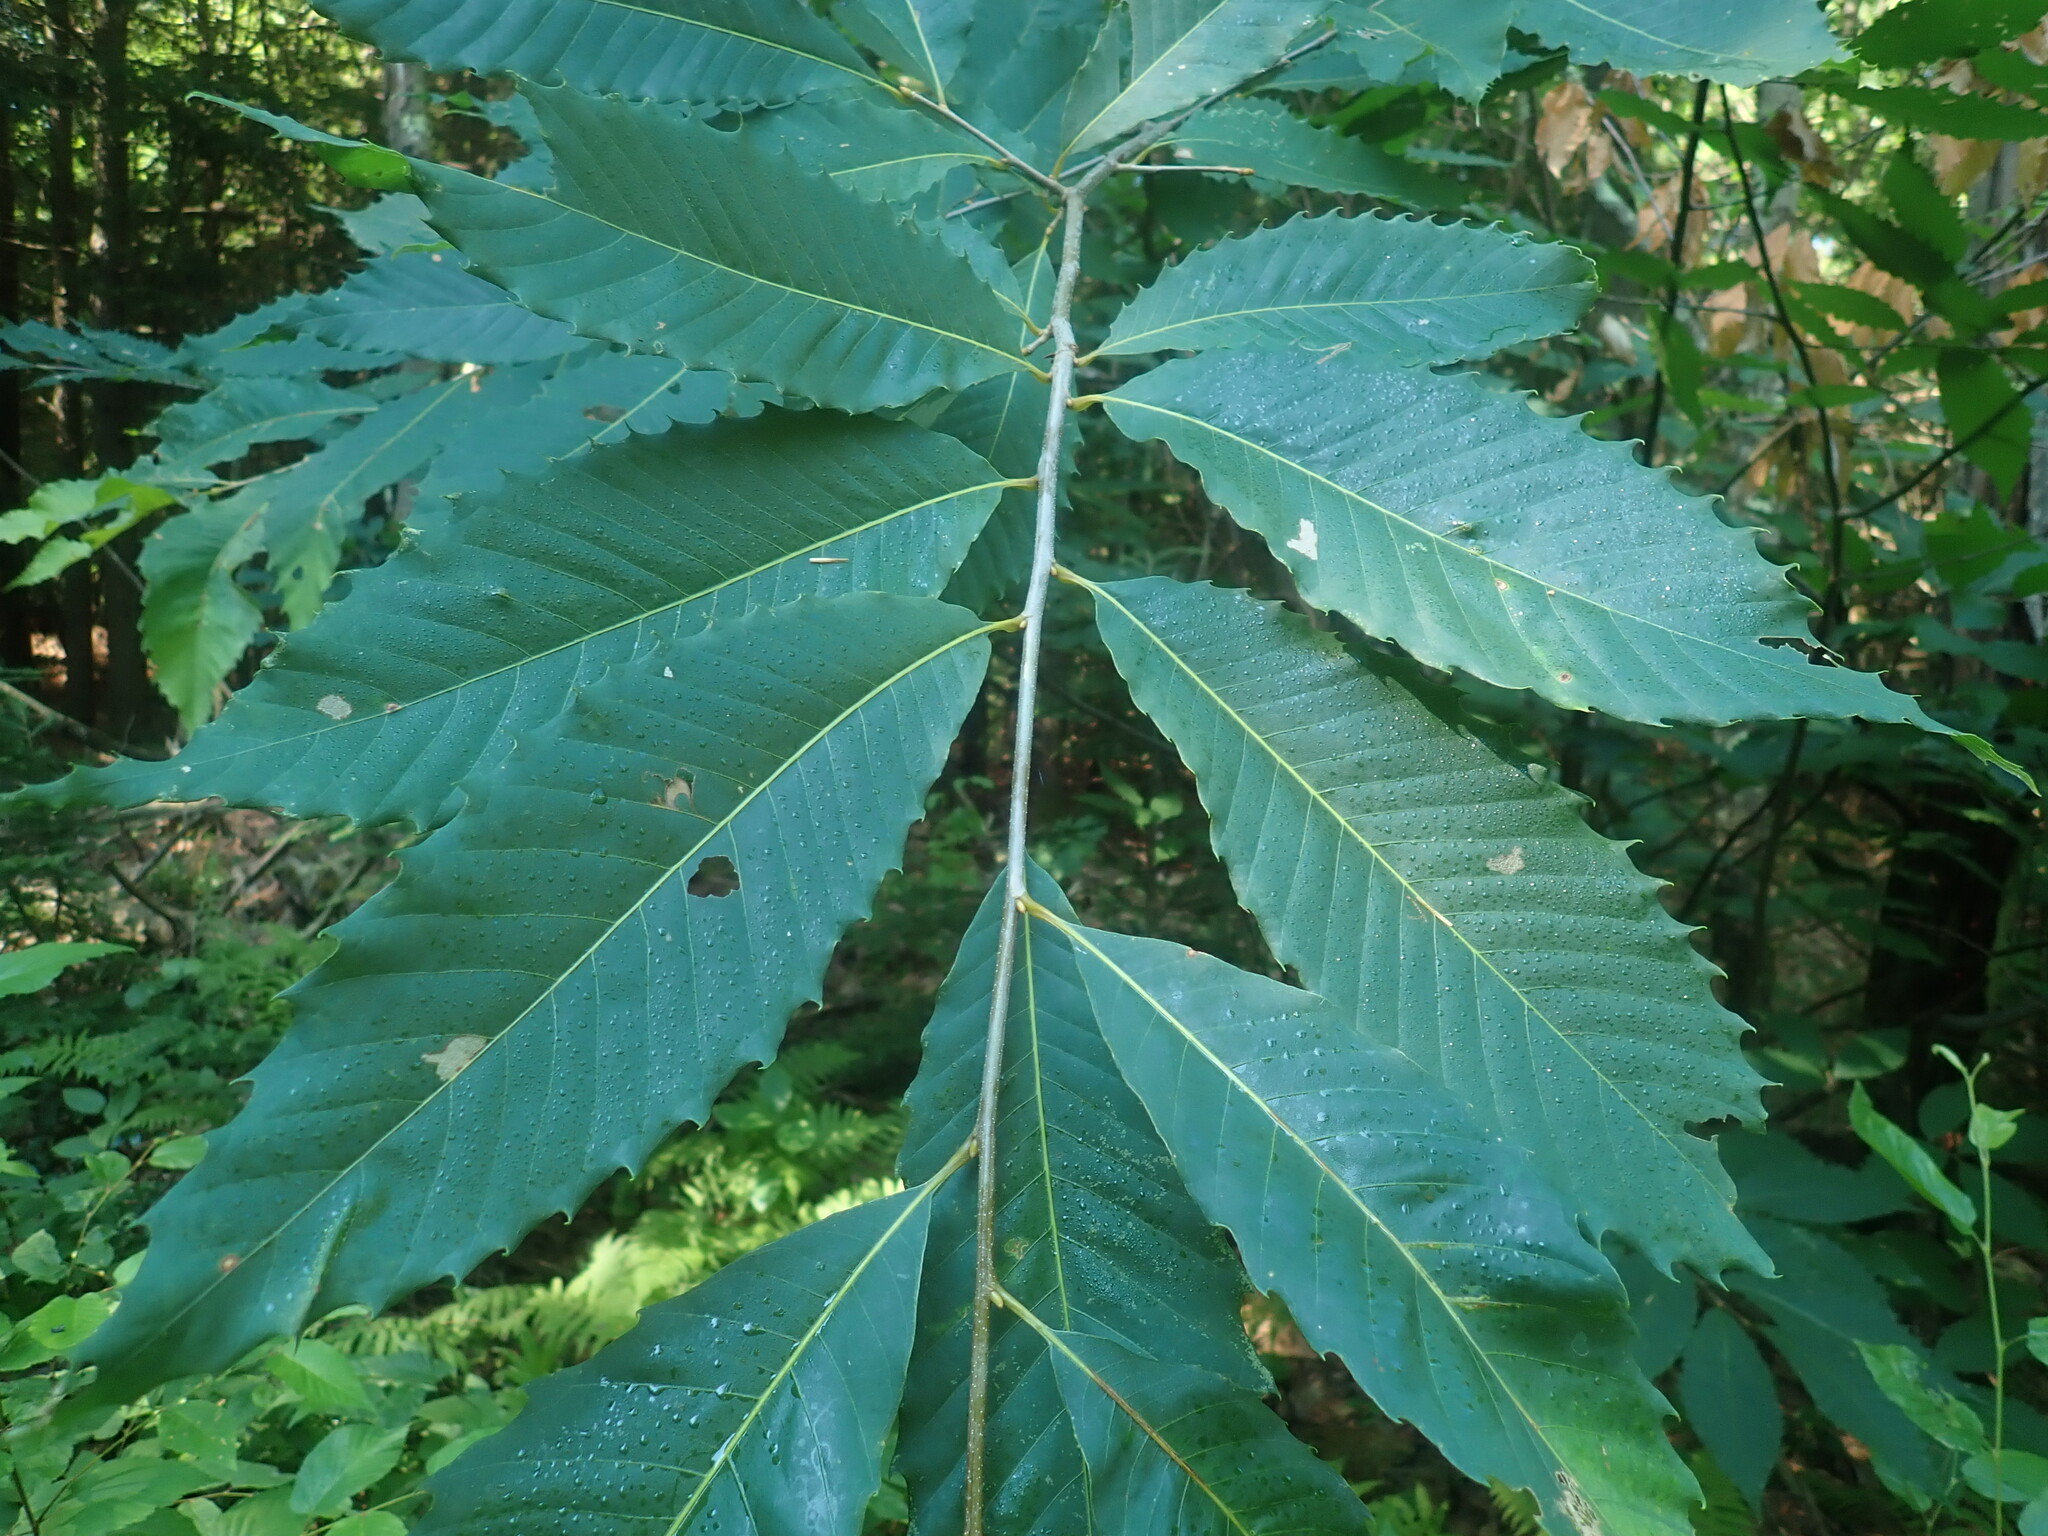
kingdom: Plantae
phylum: Tracheophyta
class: Magnoliopsida
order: Fagales
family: Fagaceae
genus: Castanea
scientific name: Castanea dentata
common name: American chestnut
